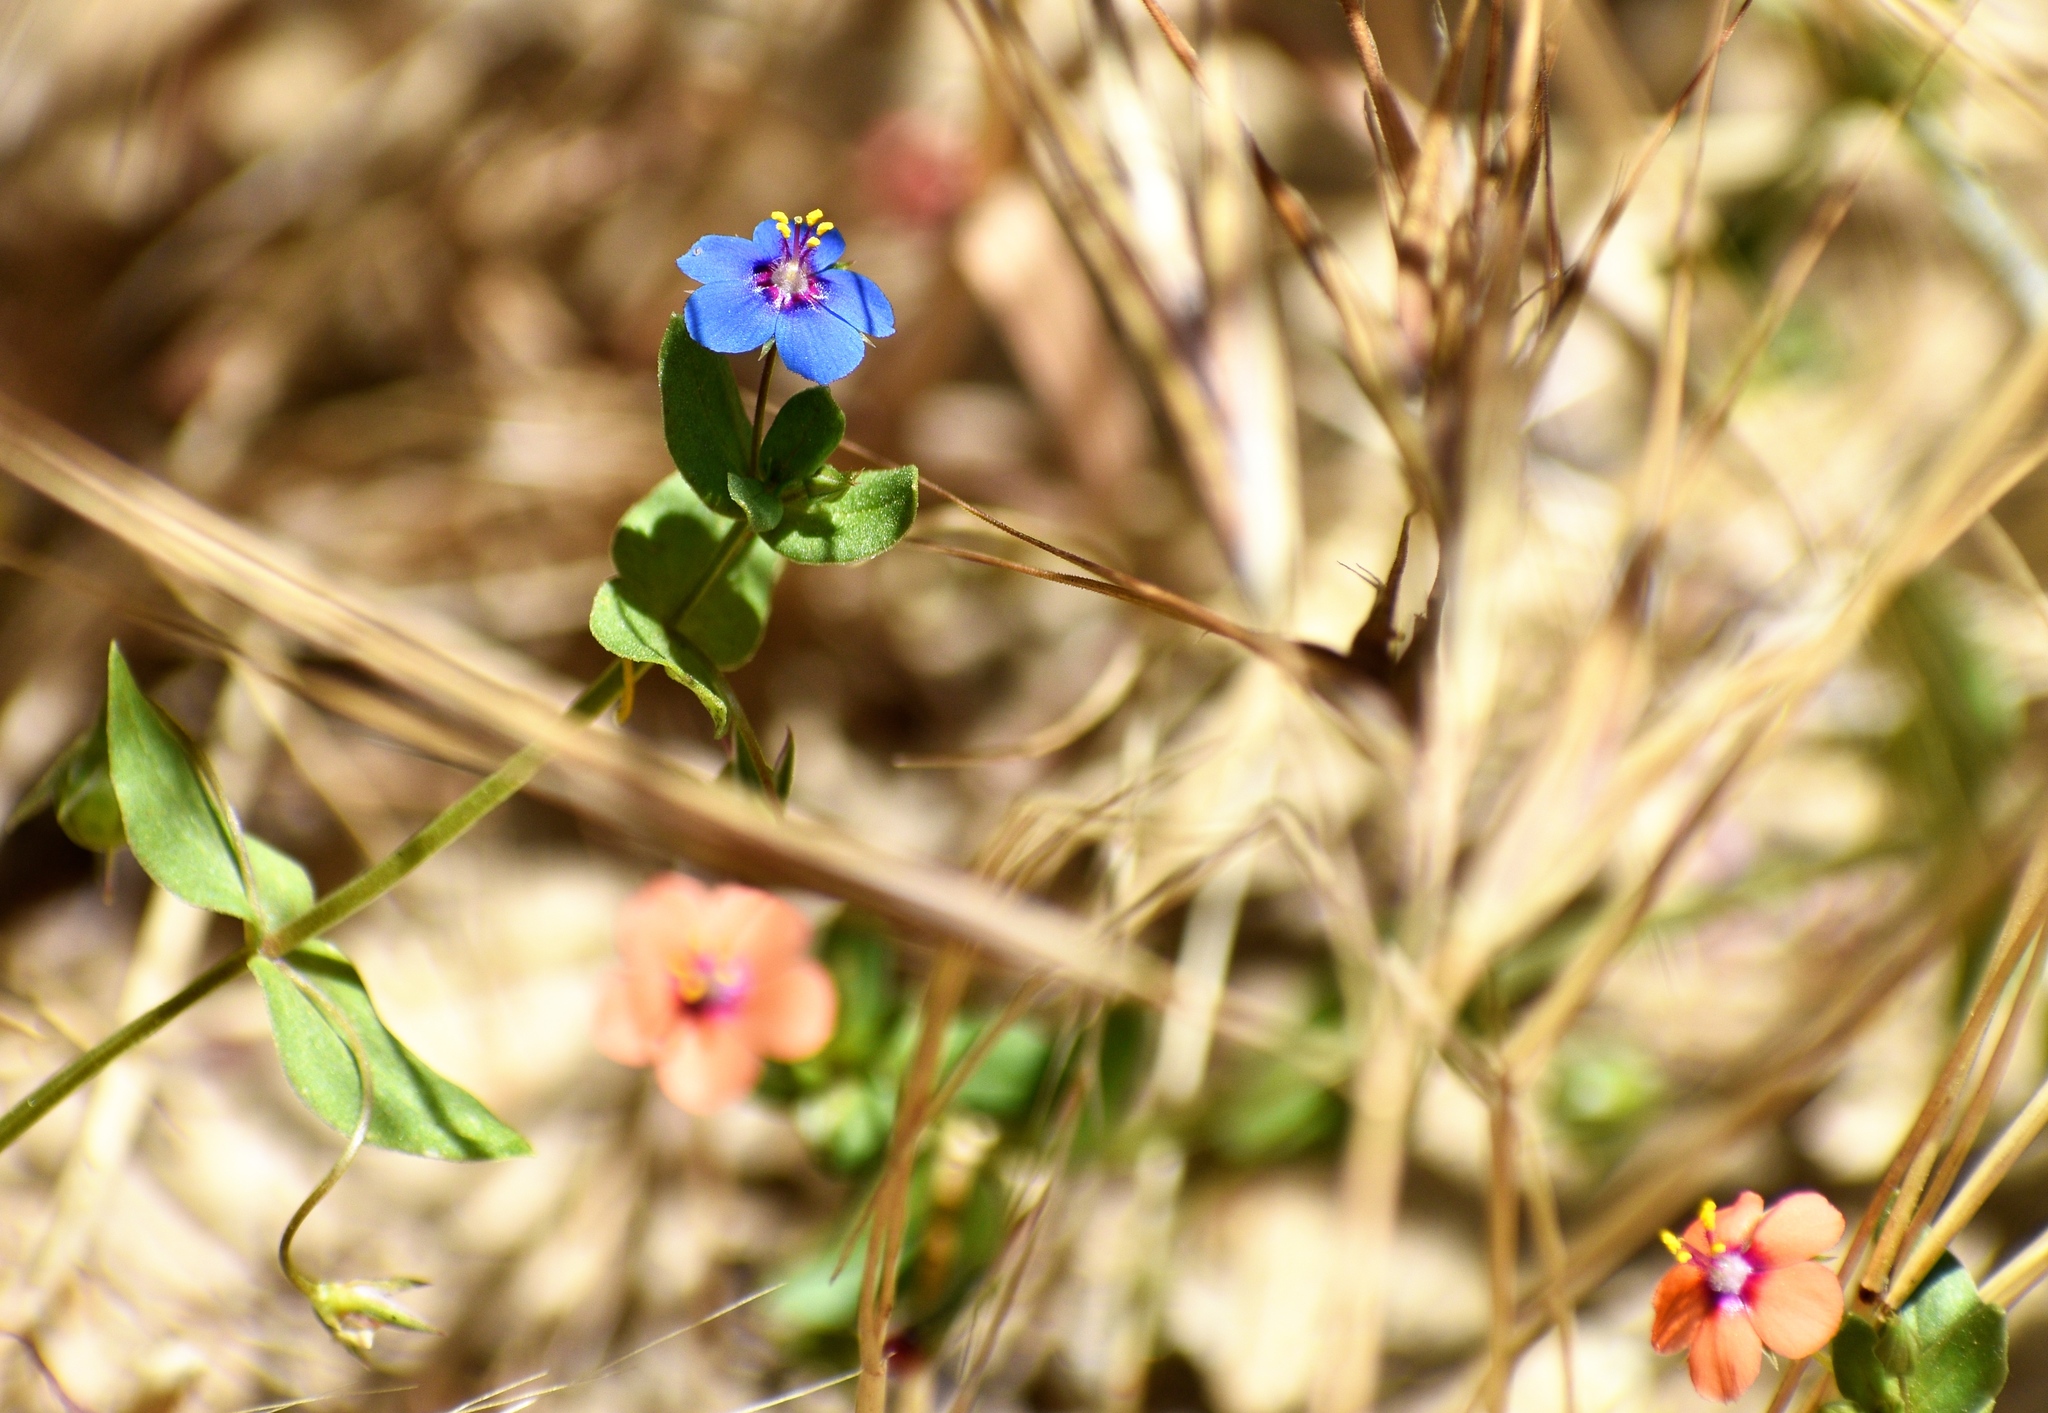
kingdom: Plantae
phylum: Tracheophyta
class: Magnoliopsida
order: Ericales
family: Primulaceae
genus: Lysimachia
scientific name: Lysimachia loeflingii
